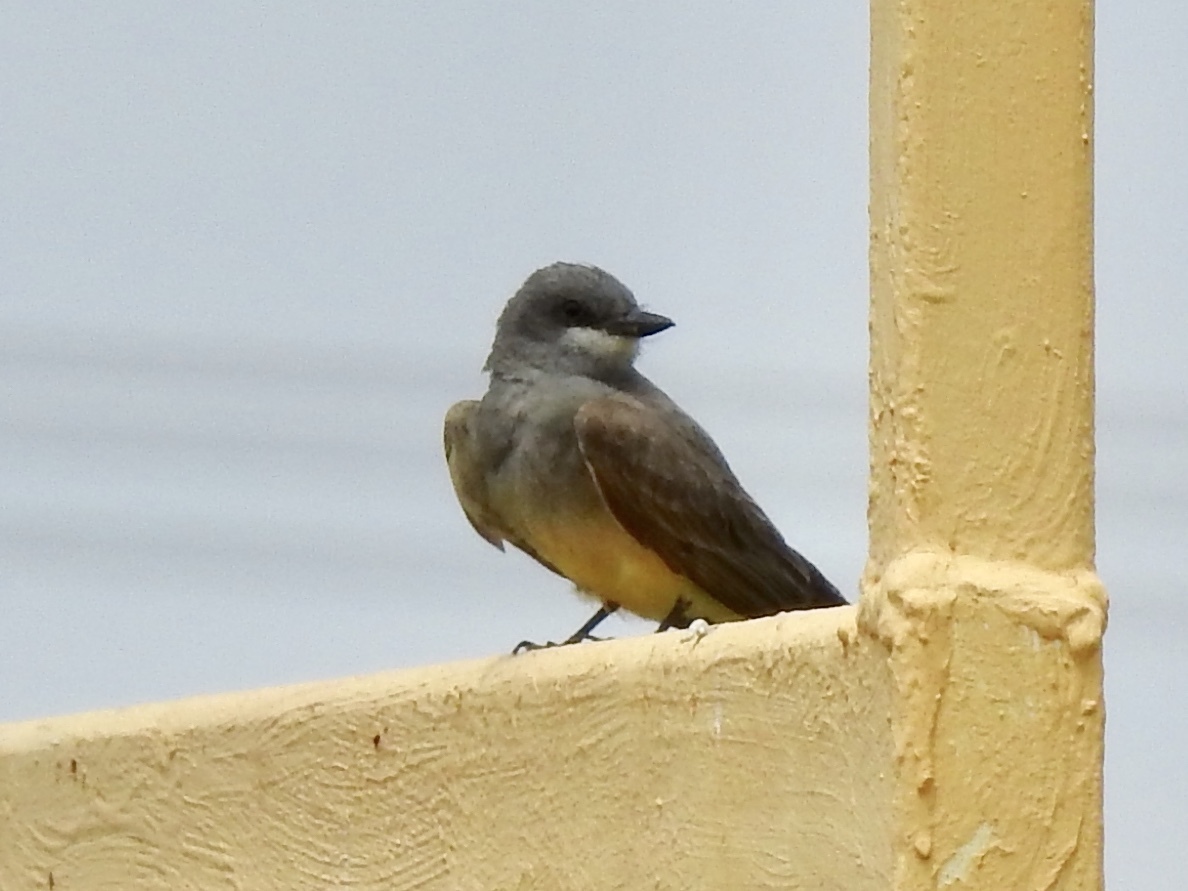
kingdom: Animalia
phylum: Chordata
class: Aves
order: Passeriformes
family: Tyrannidae
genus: Tyrannus
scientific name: Tyrannus vociferans
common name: Cassin's kingbird
